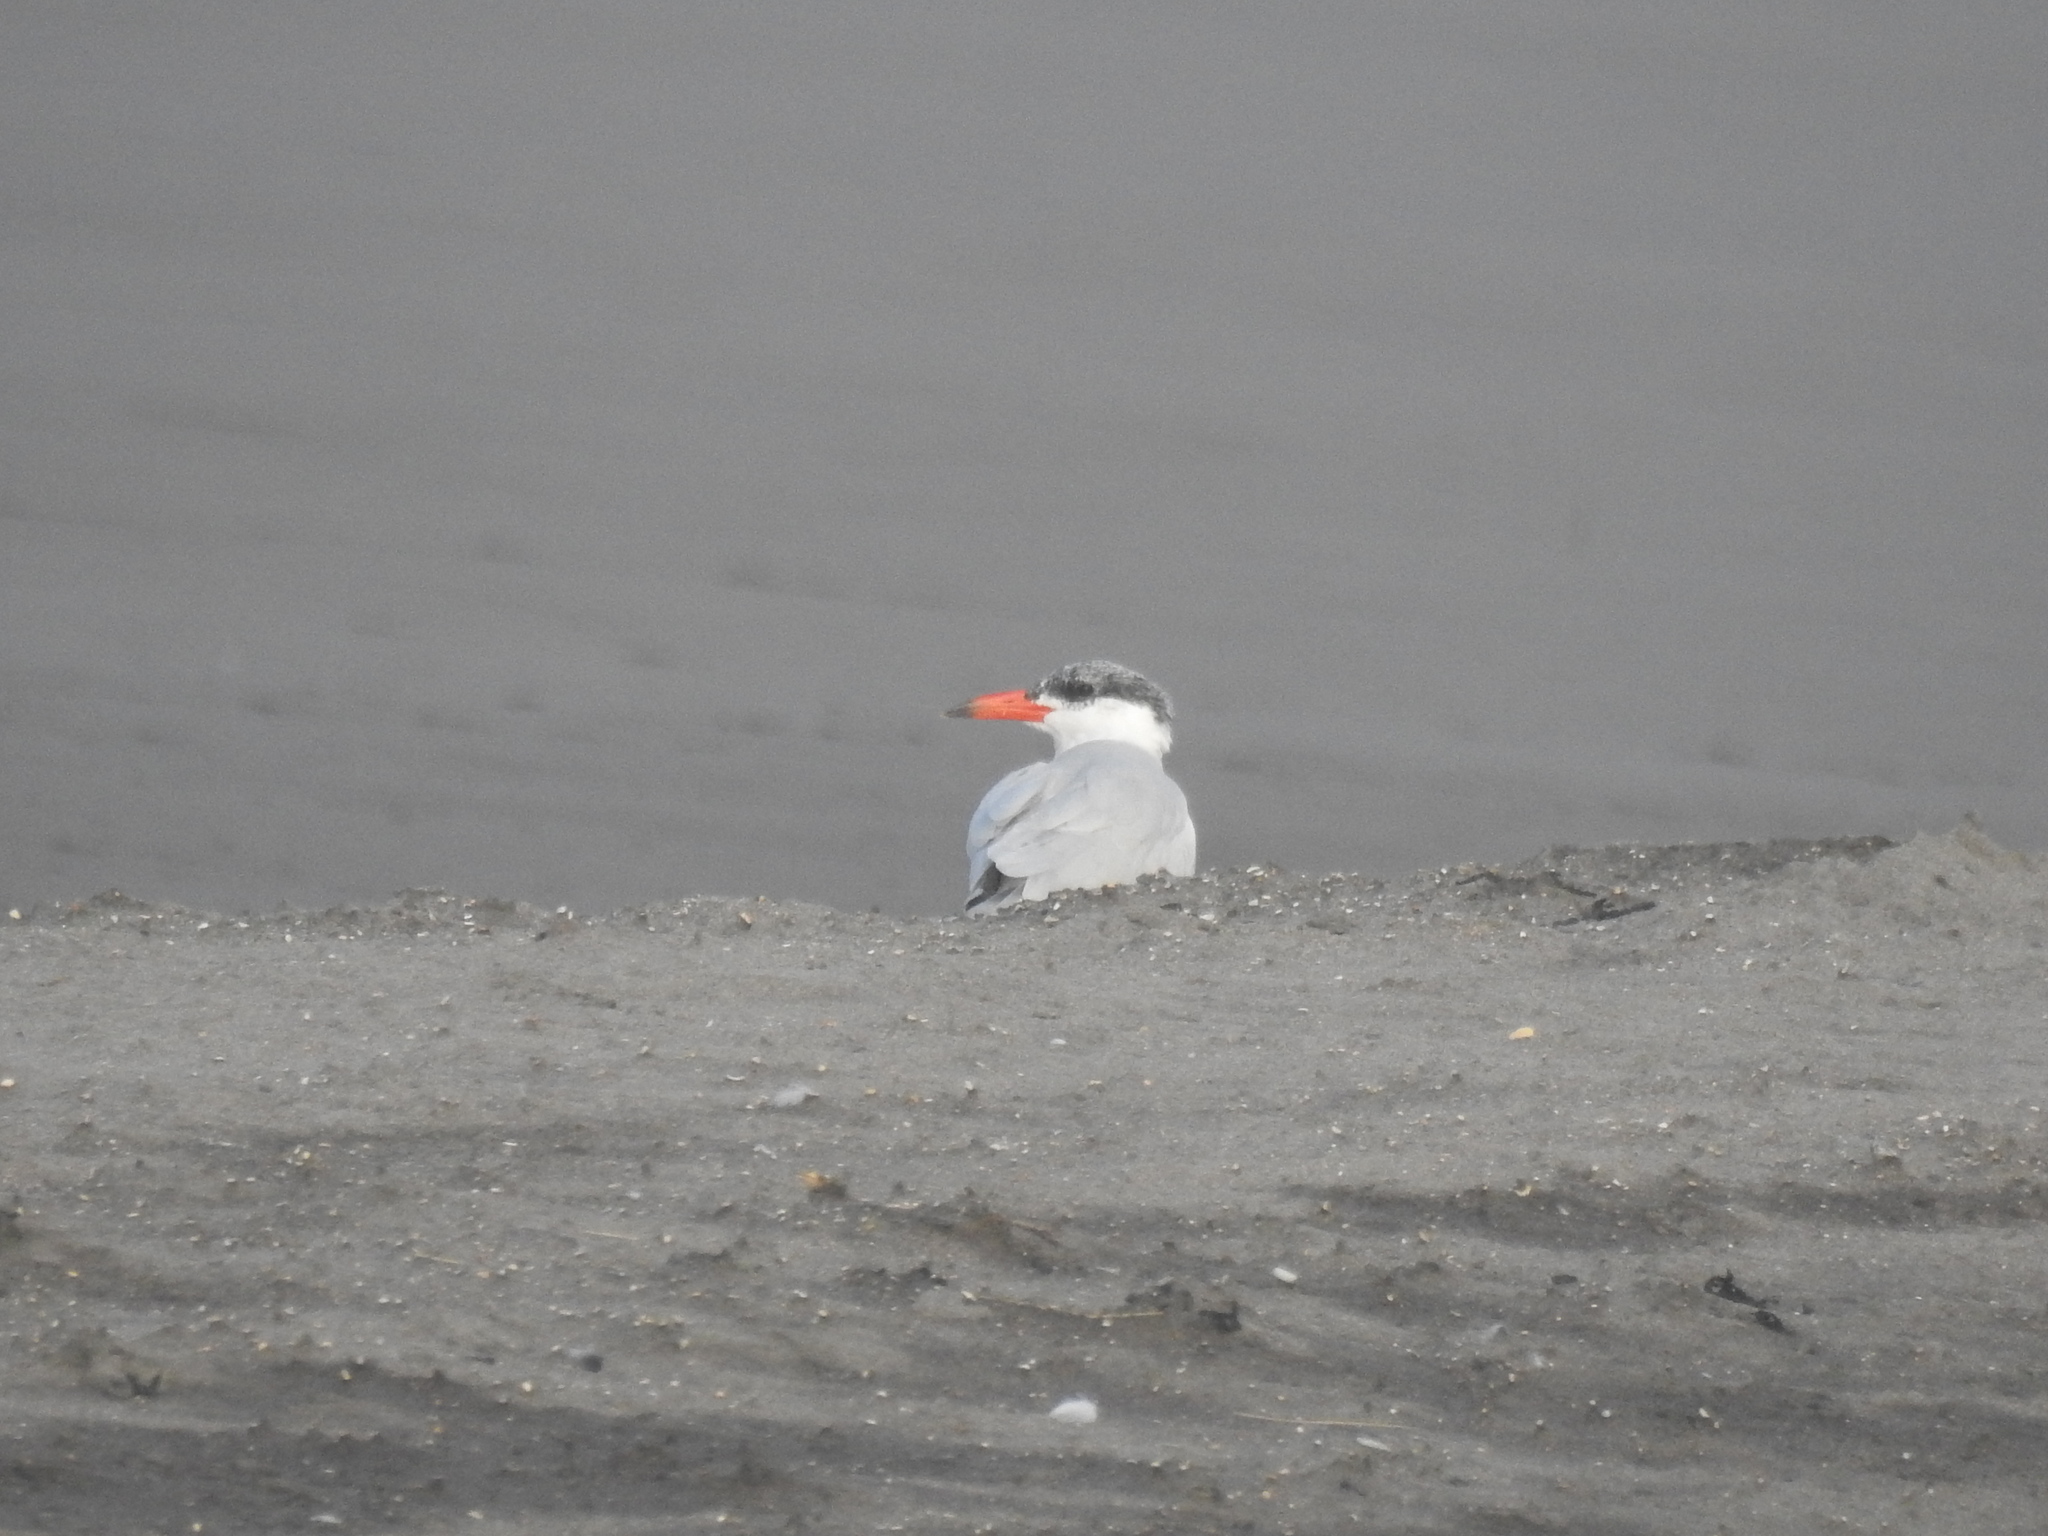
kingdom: Animalia
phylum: Chordata
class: Aves
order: Charadriiformes
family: Laridae
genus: Hydroprogne
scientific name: Hydroprogne caspia
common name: Caspian tern
